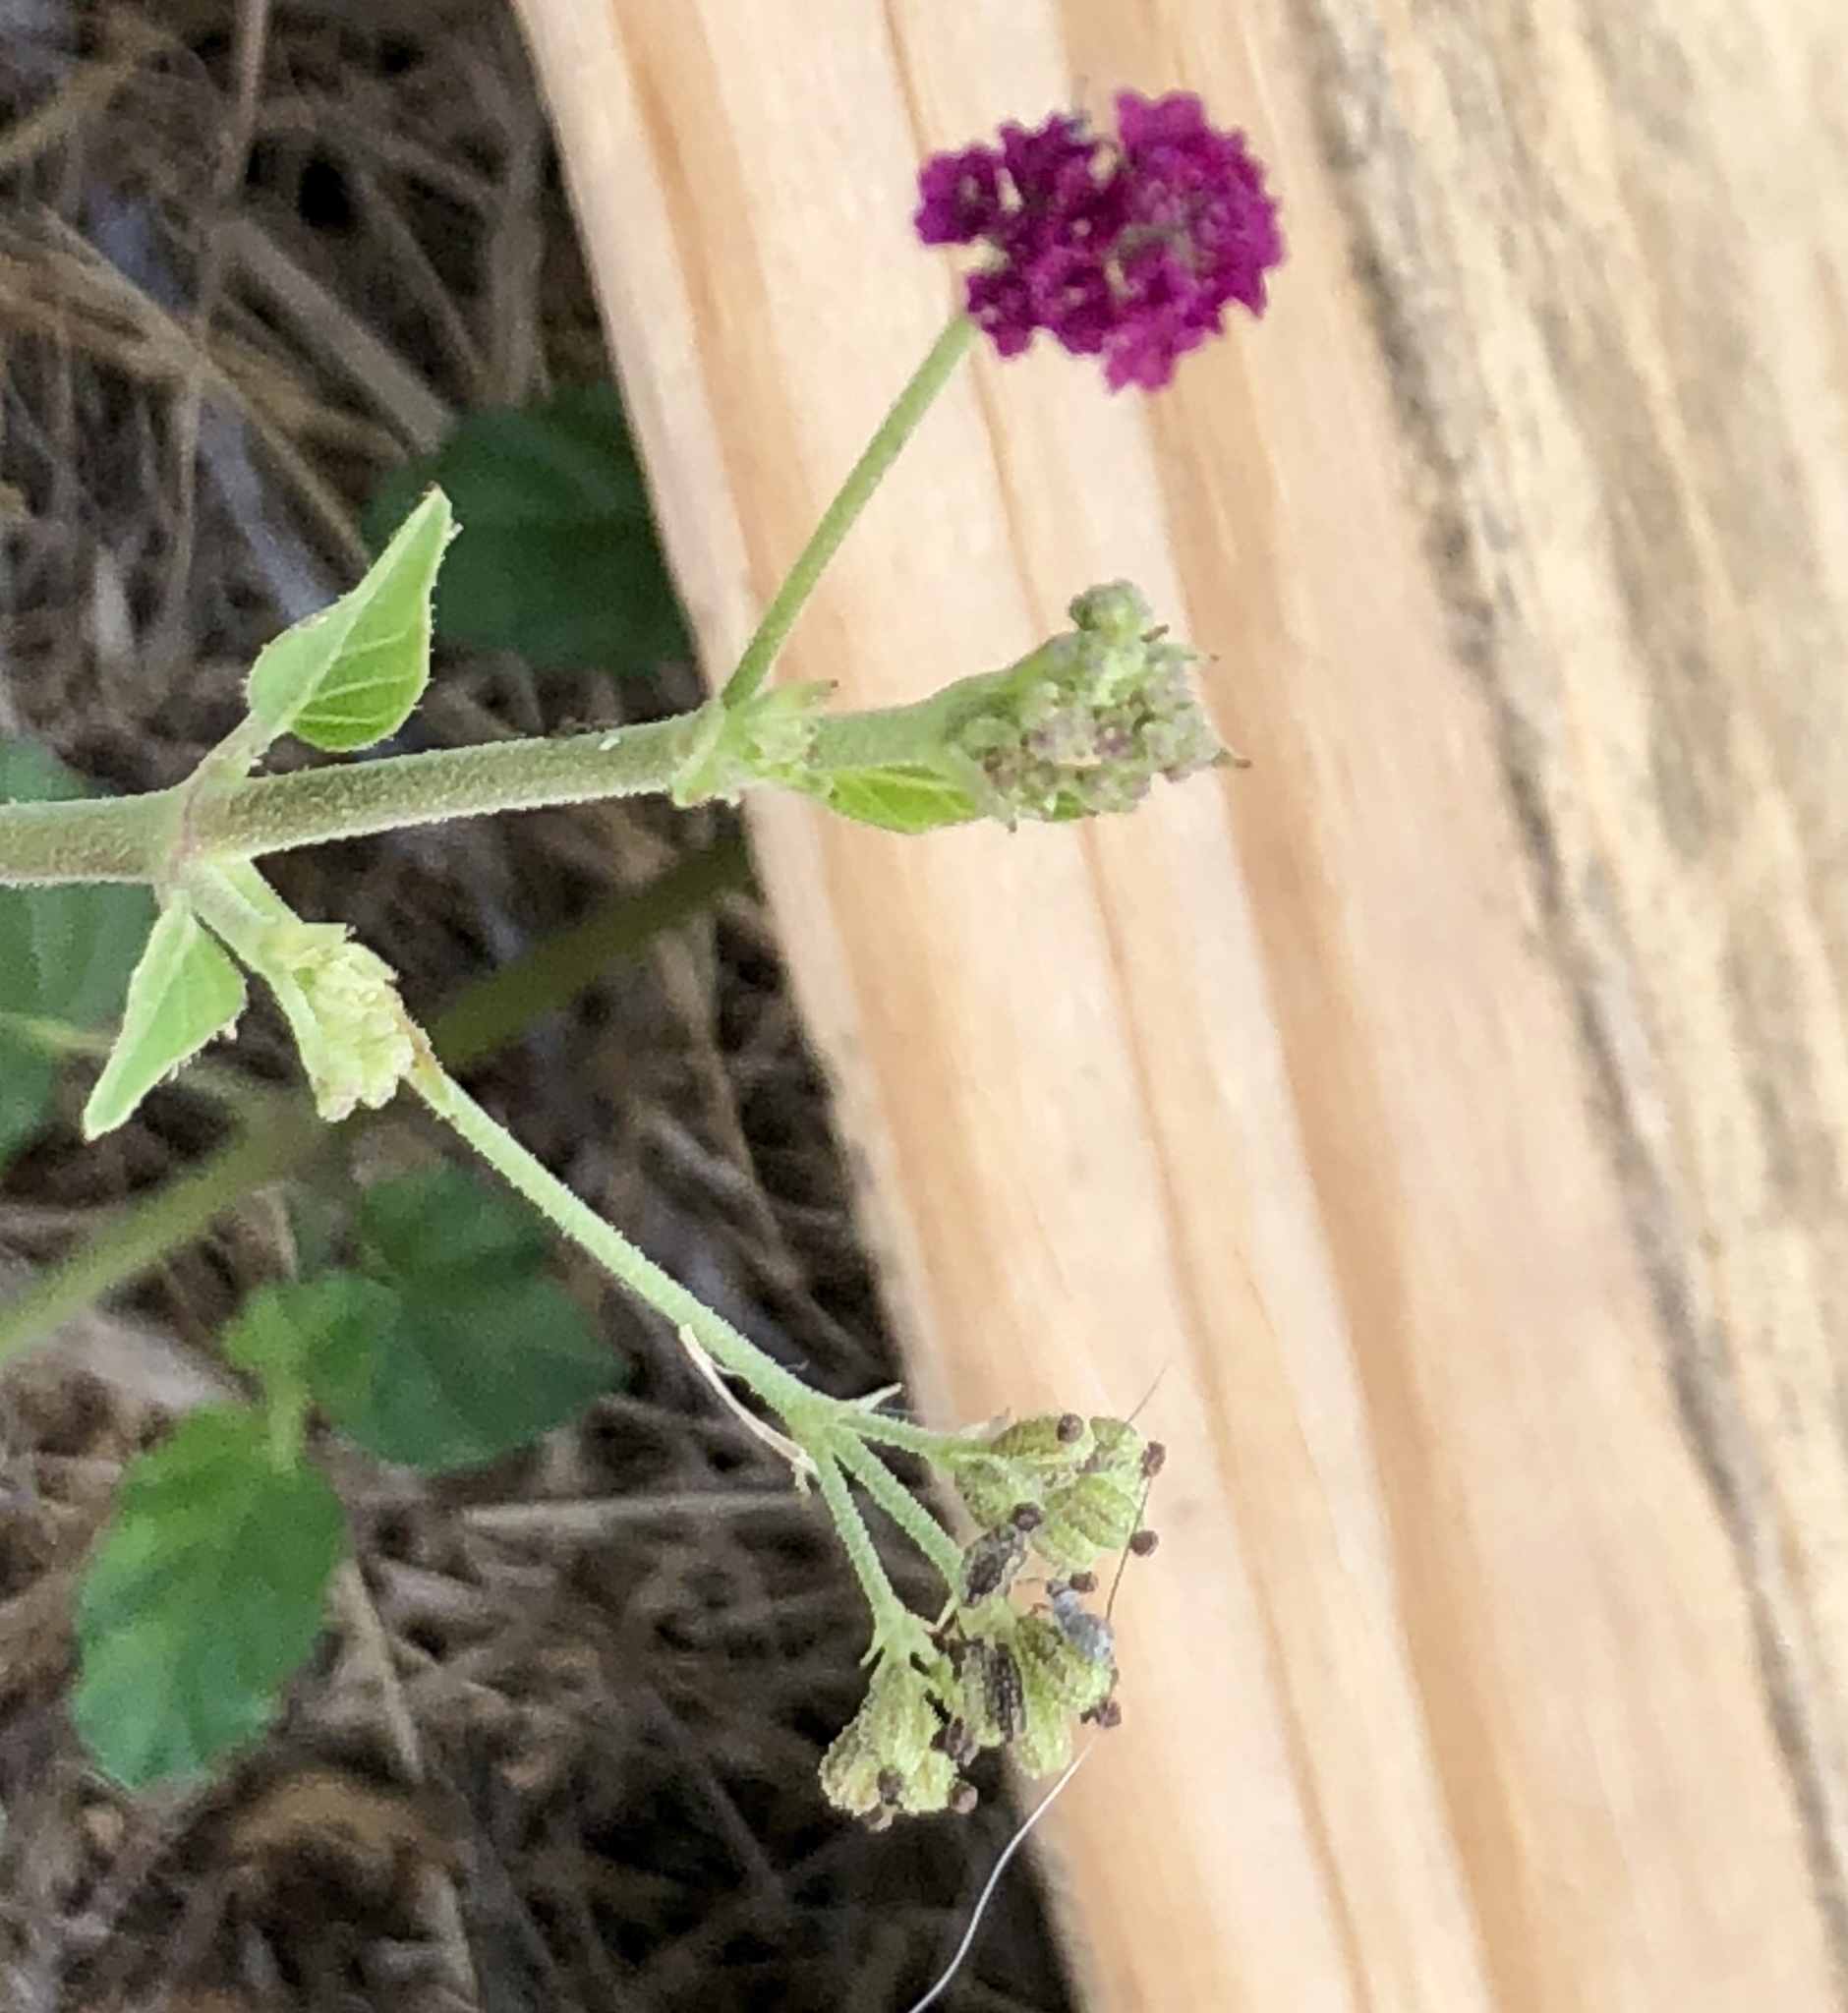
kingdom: Plantae
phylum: Tracheophyta
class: Magnoliopsida
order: Caryophyllales
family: Nyctaginaceae
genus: Boerhavia
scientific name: Boerhavia coccinea
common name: Scarlet spiderling
